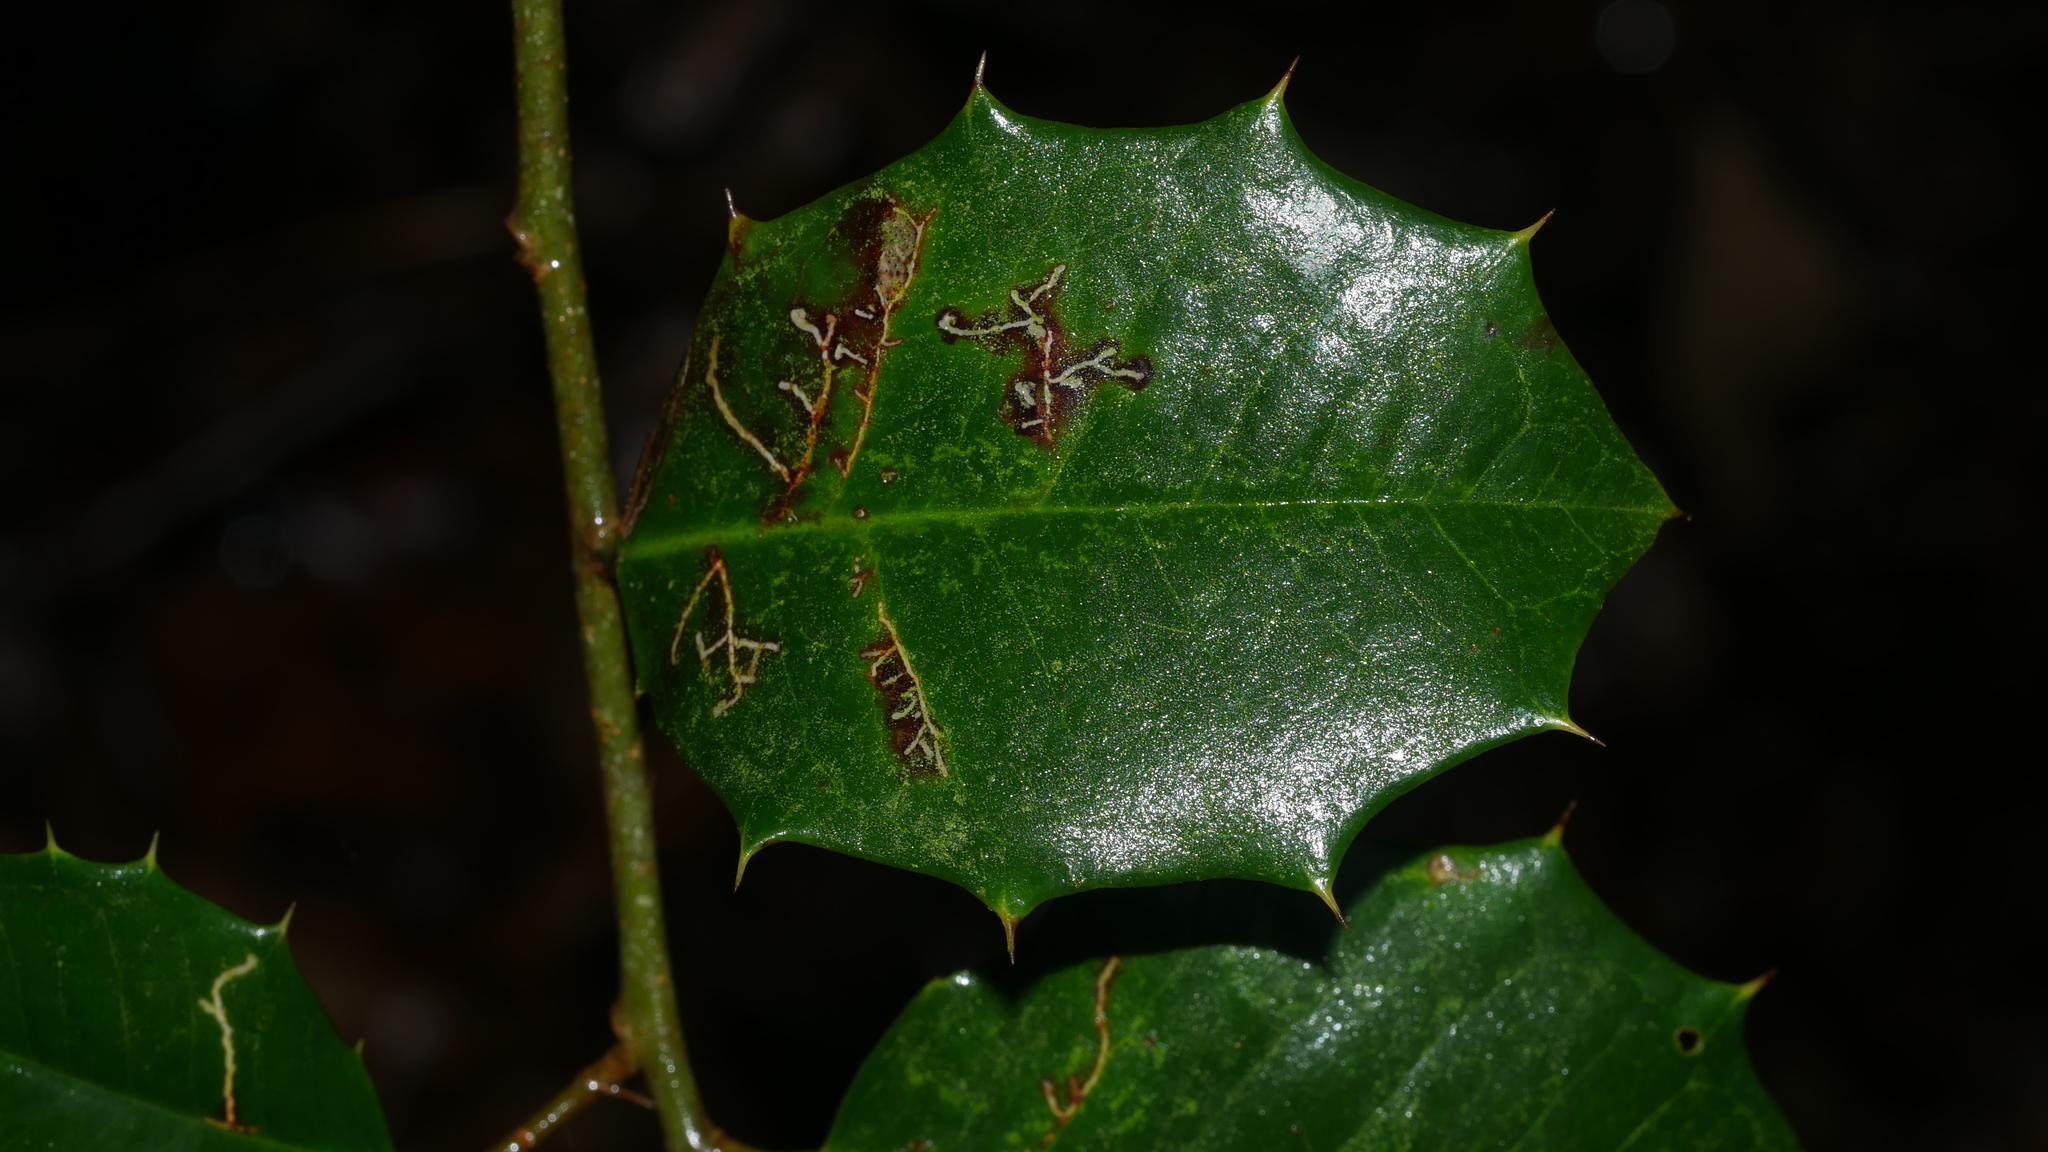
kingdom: Animalia
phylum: Arthropoda
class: Insecta
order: Lepidoptera
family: Tortricidae
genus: Rhopobota
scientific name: Rhopobota
